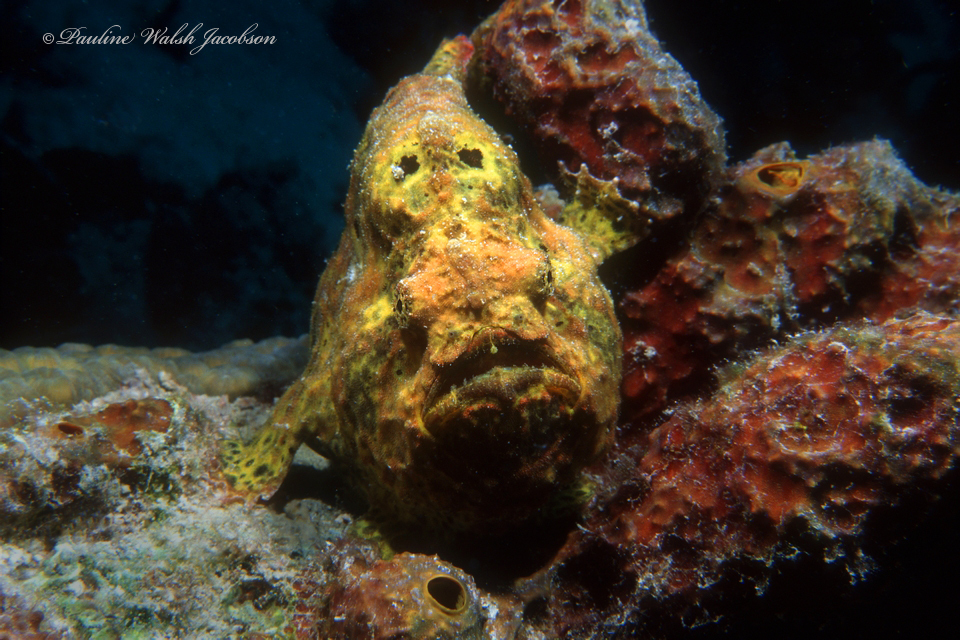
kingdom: Animalia
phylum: Chordata
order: Lophiiformes
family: Antennariidae
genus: Antennarius
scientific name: Antennarius multiocellatus
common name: Longlure frogfish
